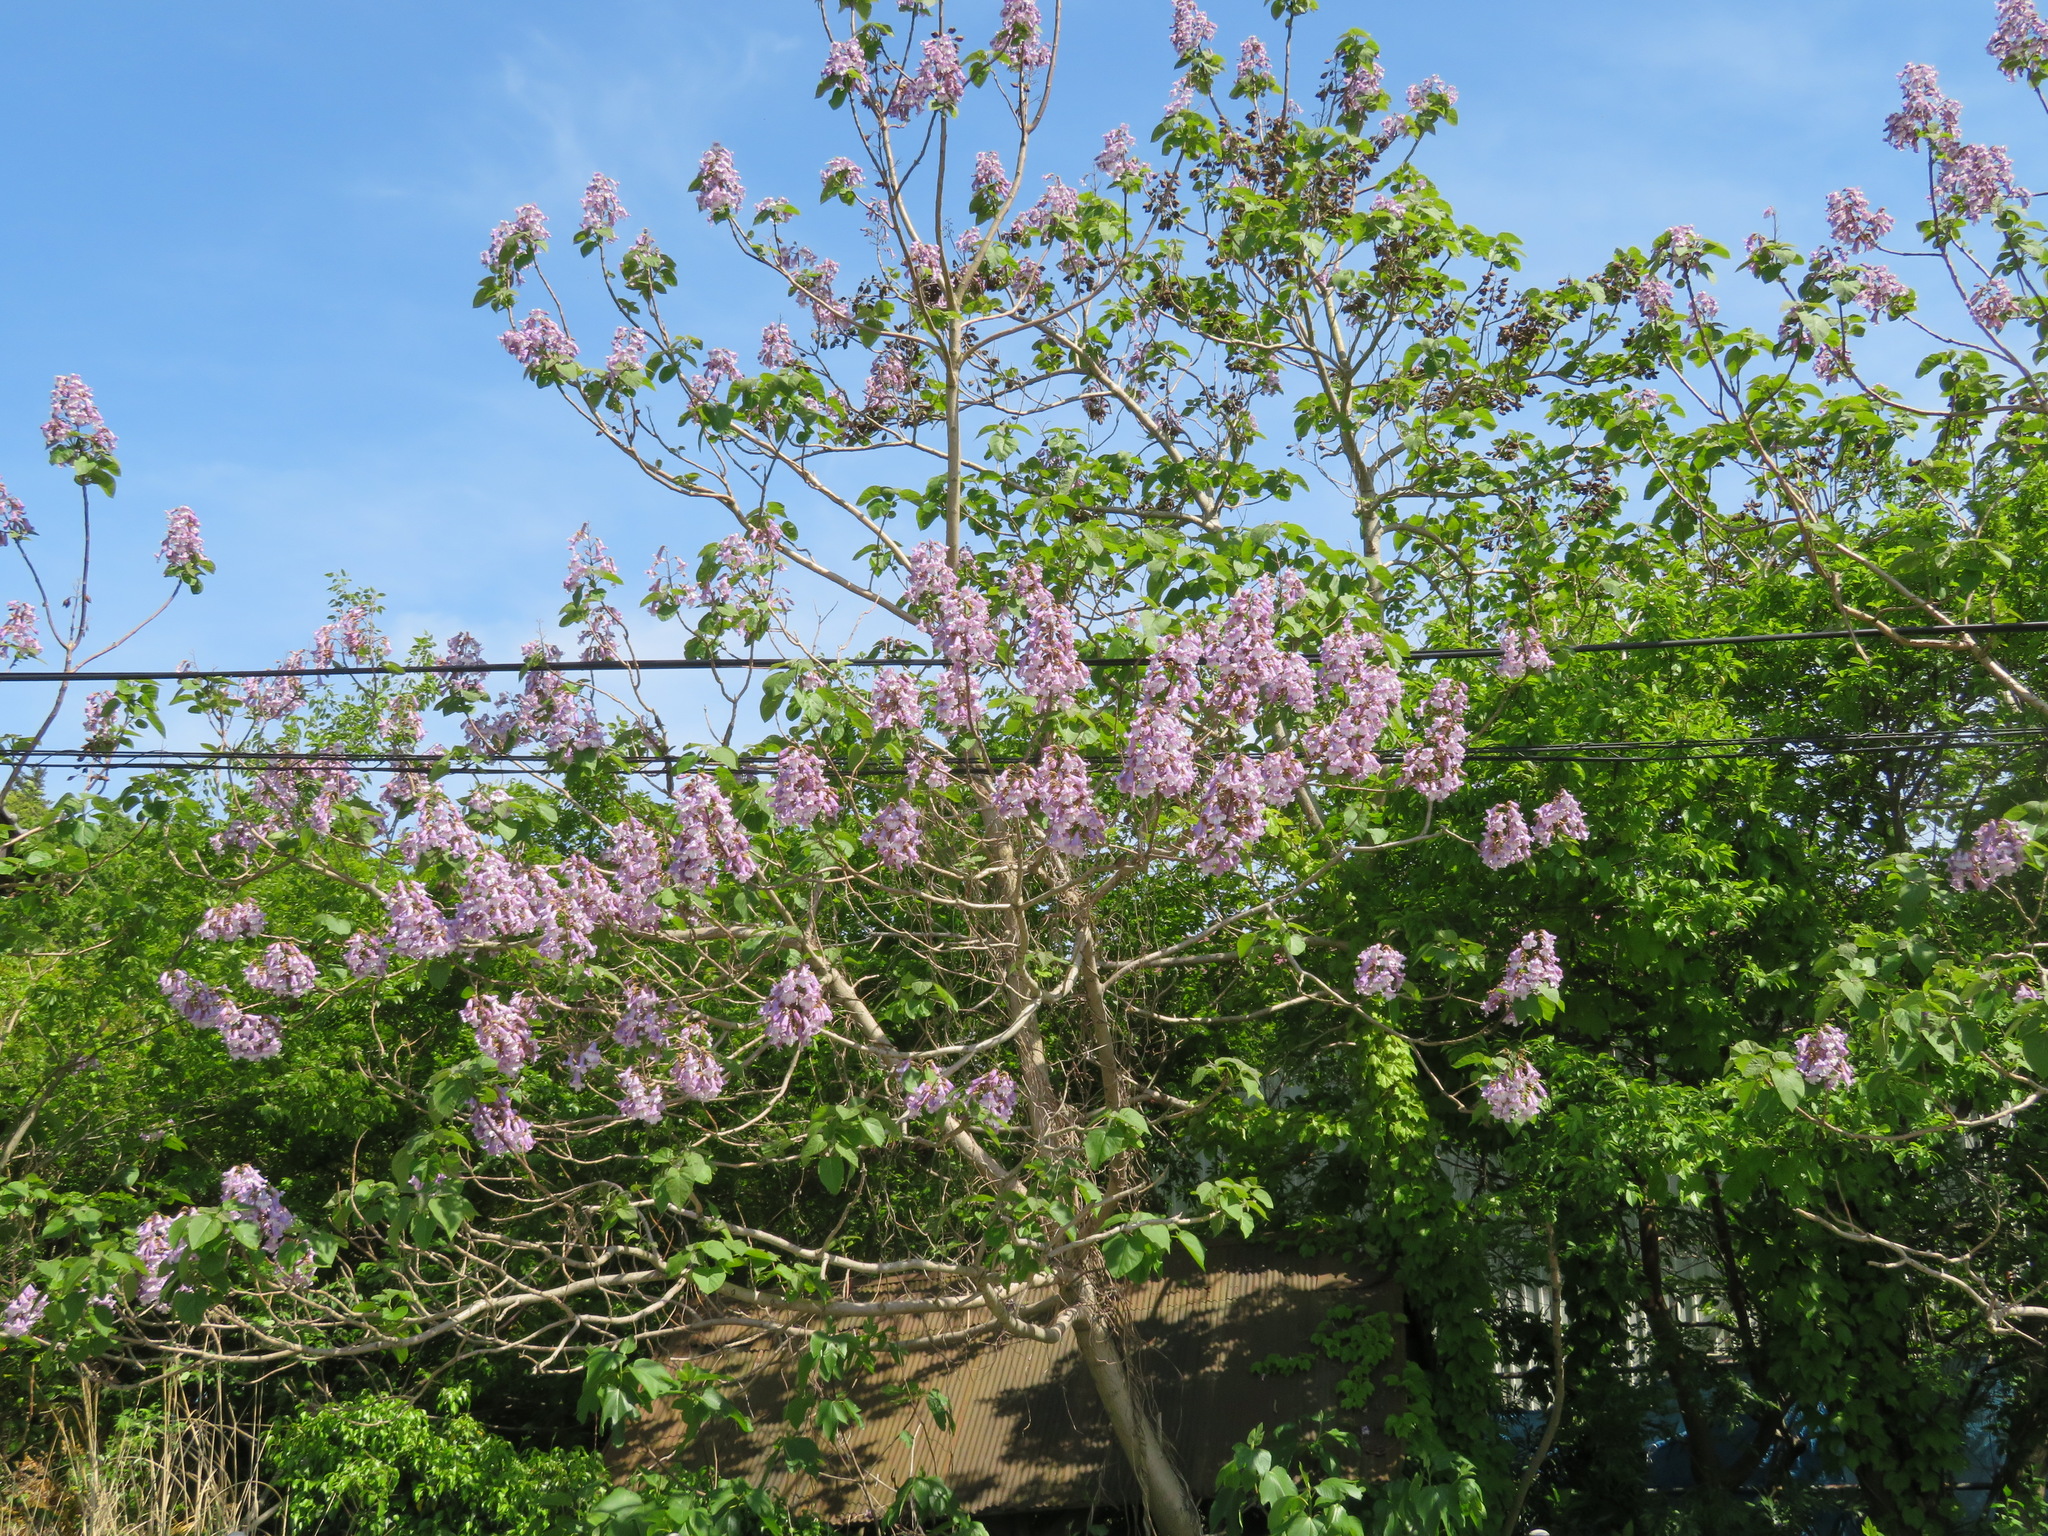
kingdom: Plantae
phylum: Tracheophyta
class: Magnoliopsida
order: Lamiales
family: Paulowniaceae
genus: Paulownia
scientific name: Paulownia tomentosa
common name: Foxglove-tree
